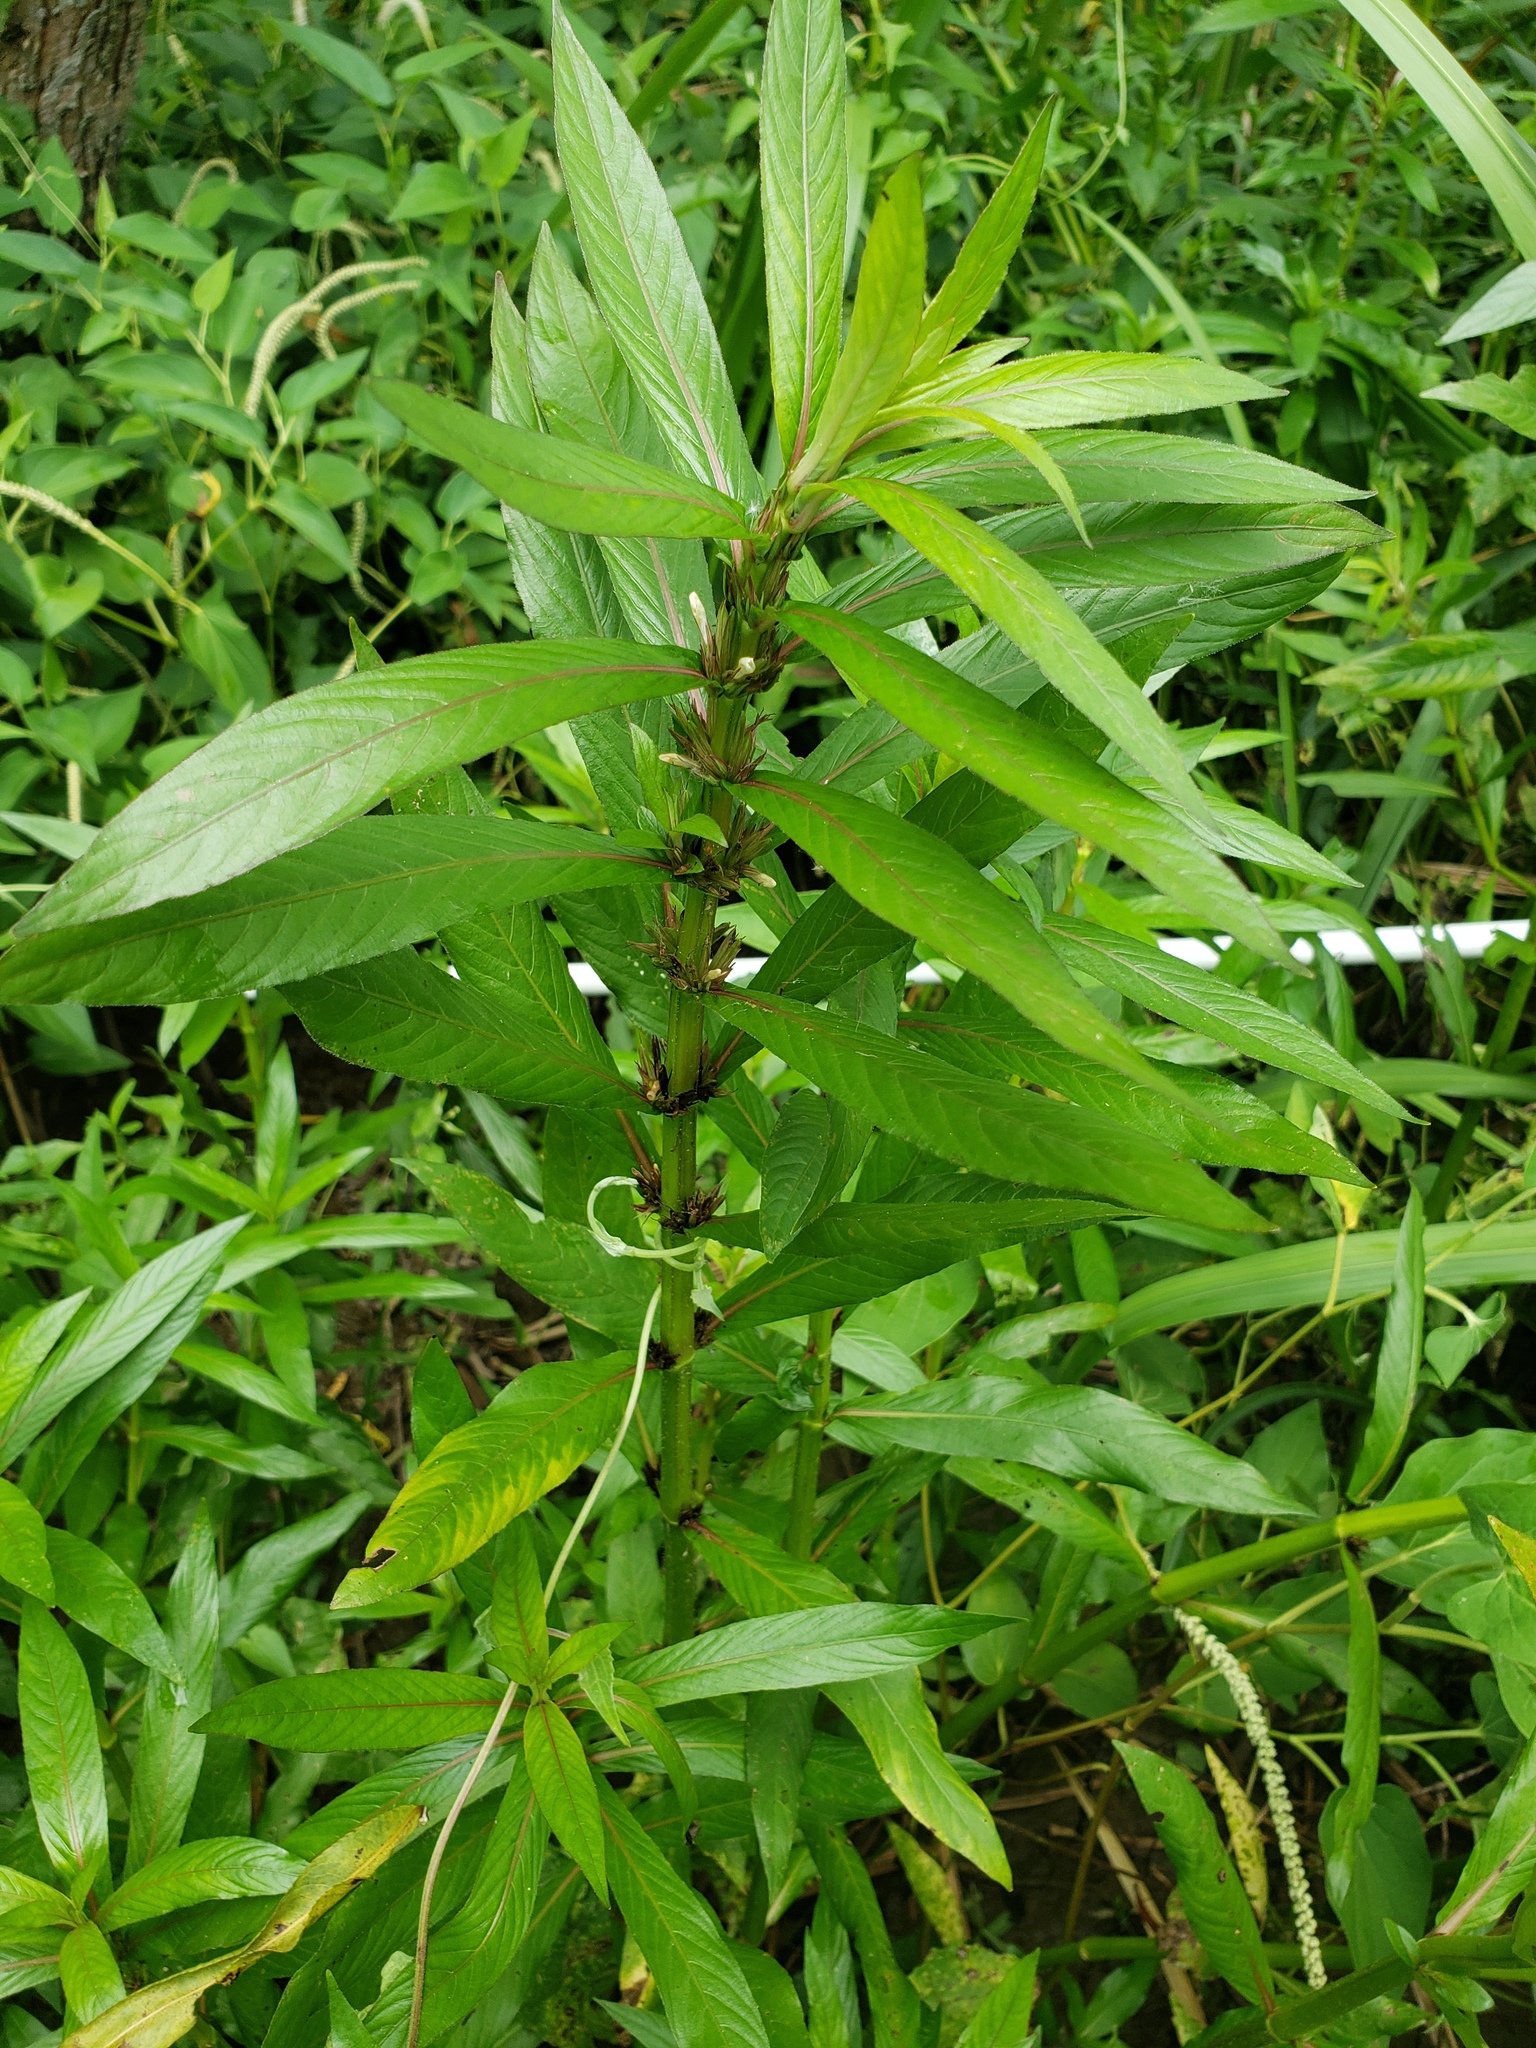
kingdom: Plantae
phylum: Tracheophyta
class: Magnoliopsida
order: Lamiales
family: Acanthaceae
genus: Hygrophila
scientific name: Hygrophila costata
